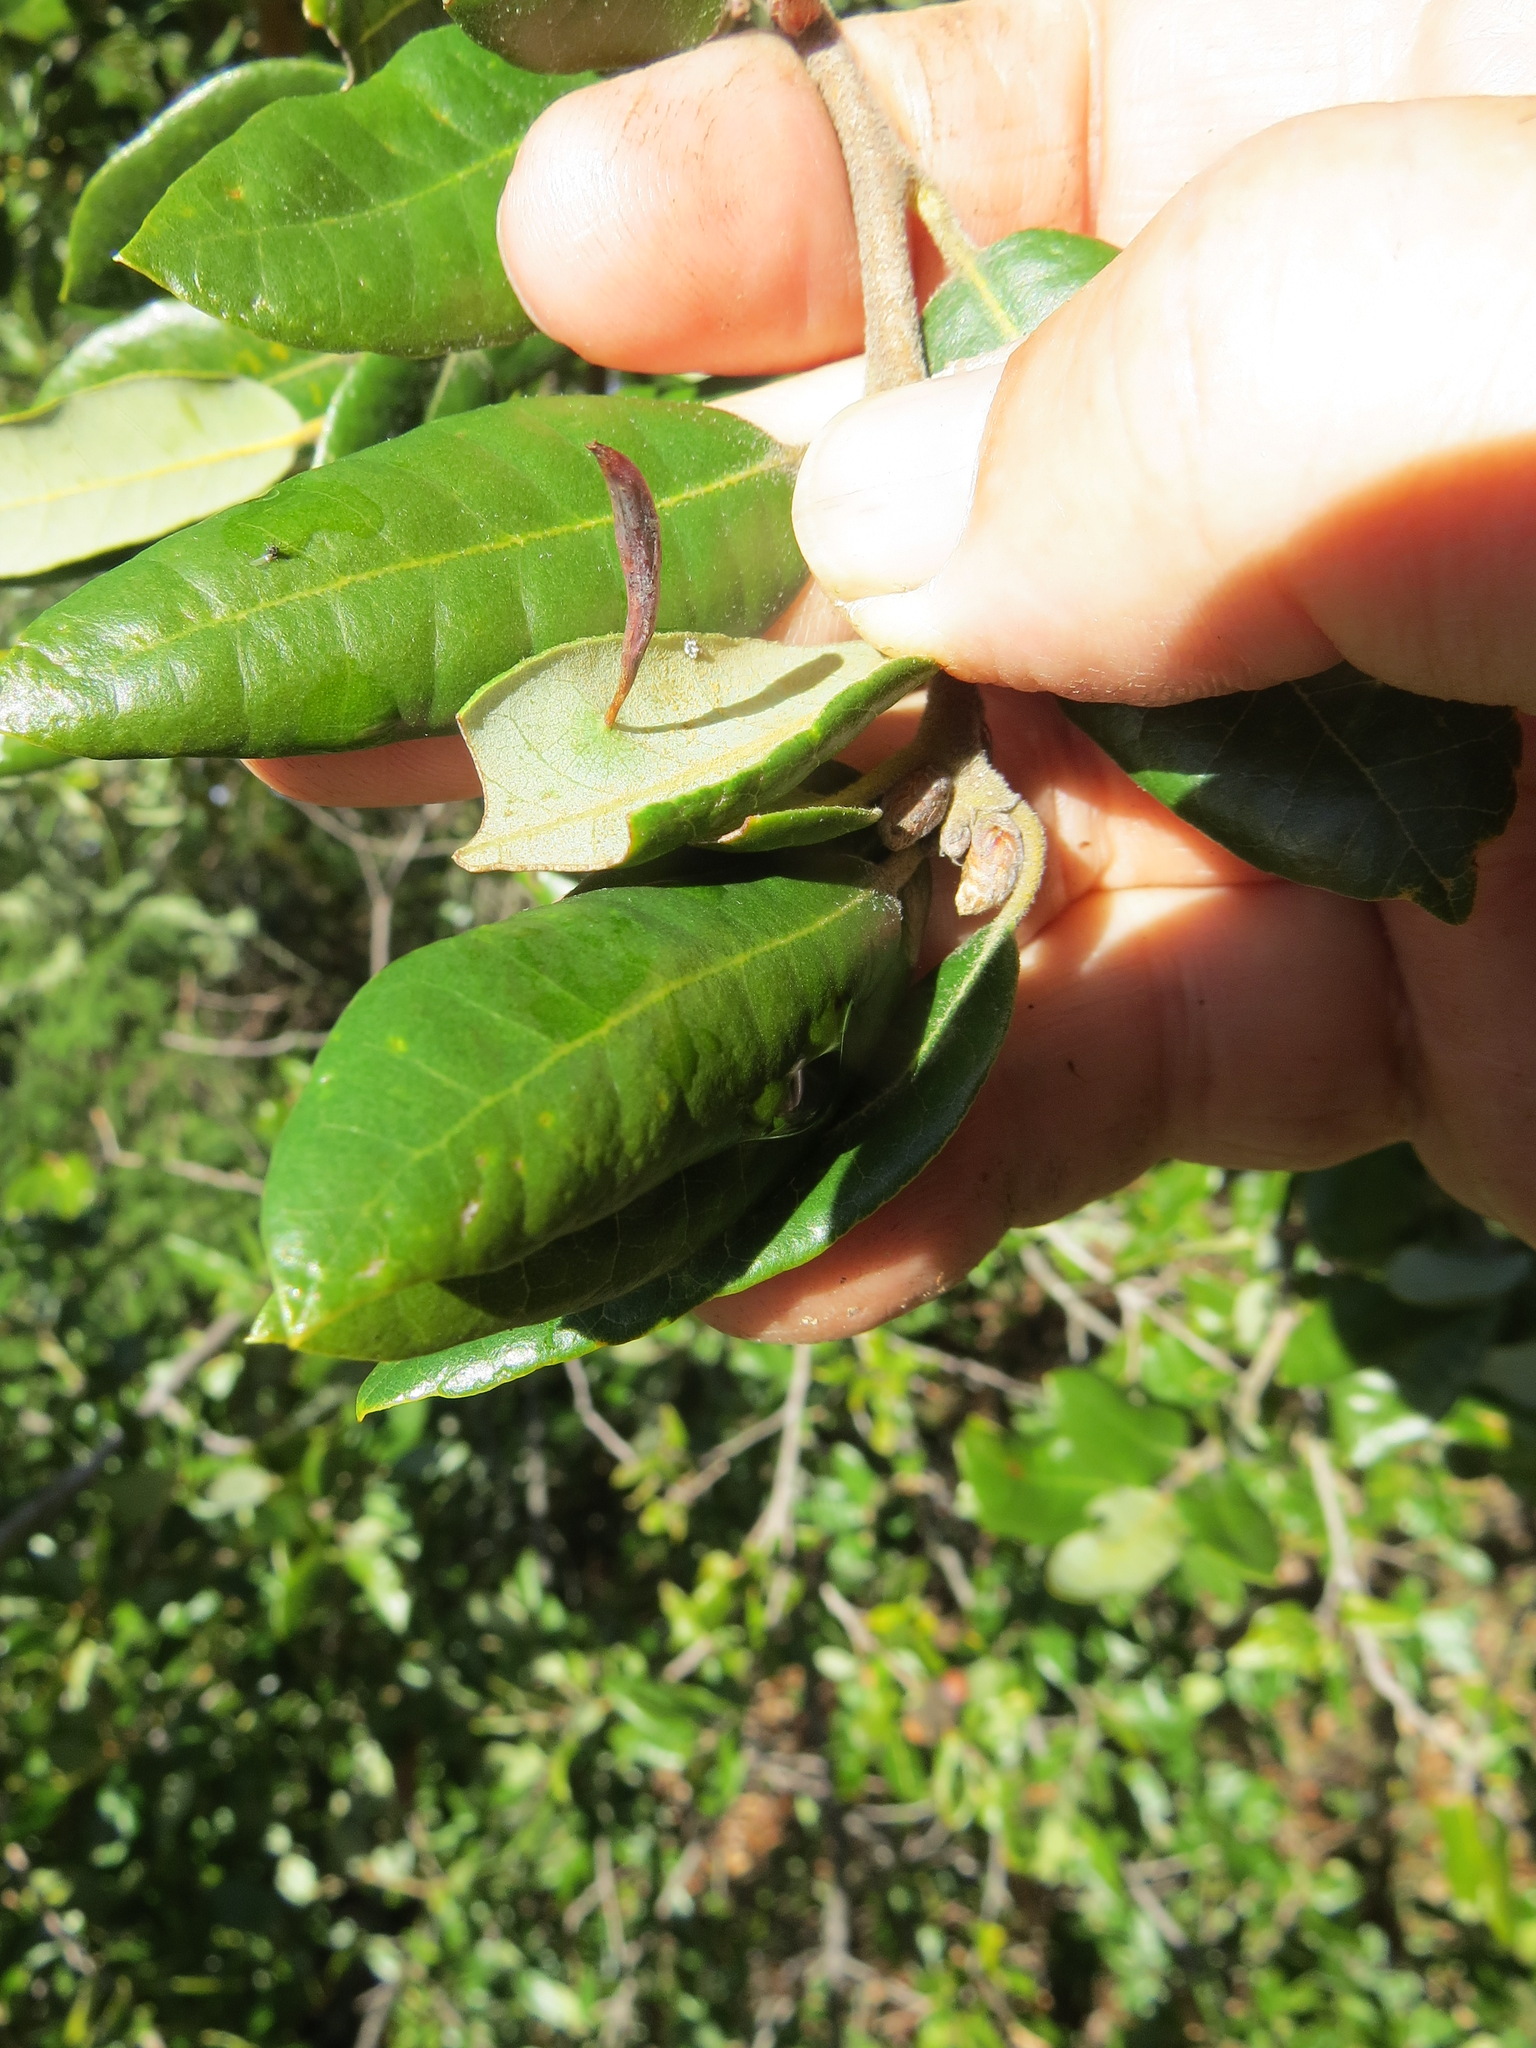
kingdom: Animalia
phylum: Arthropoda
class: Insecta
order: Hymenoptera
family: Cynipidae
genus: Heteroecus
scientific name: Heteroecus
